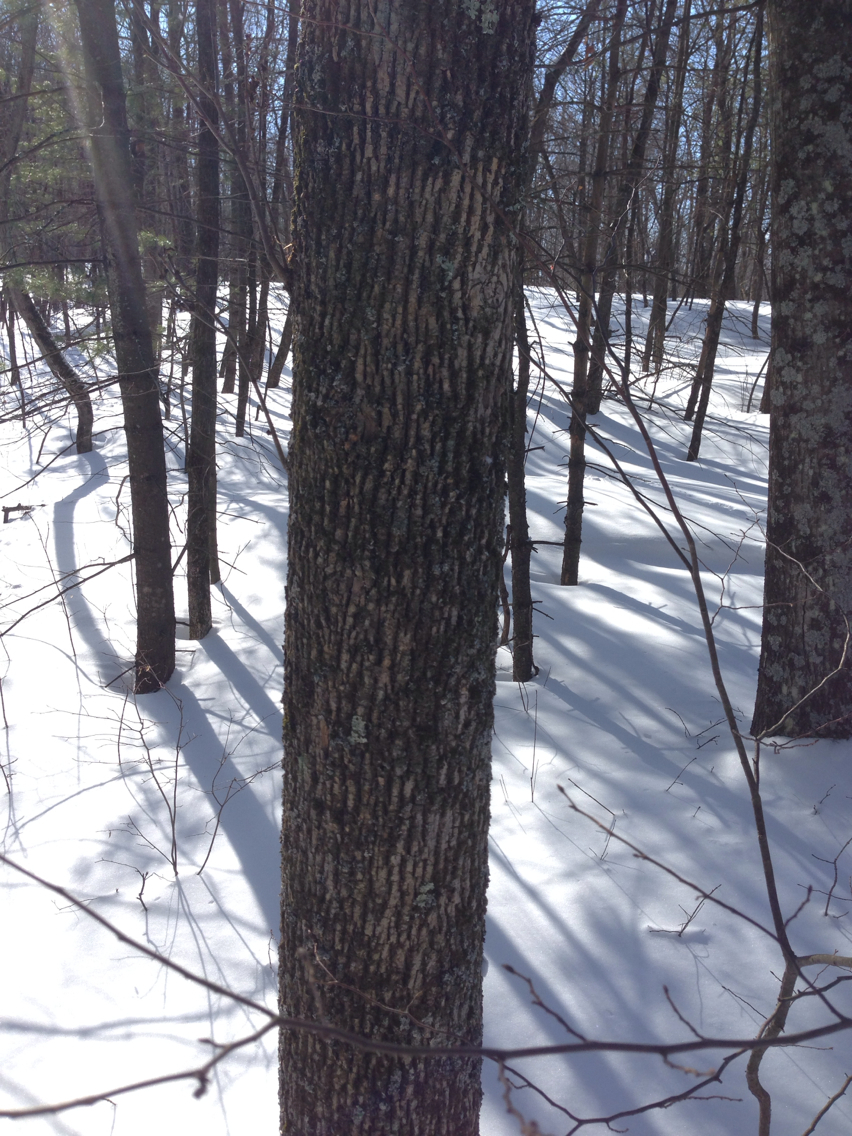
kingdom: Plantae
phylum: Tracheophyta
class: Magnoliopsida
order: Lamiales
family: Oleaceae
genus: Fraxinus
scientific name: Fraxinus americana
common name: White ash
